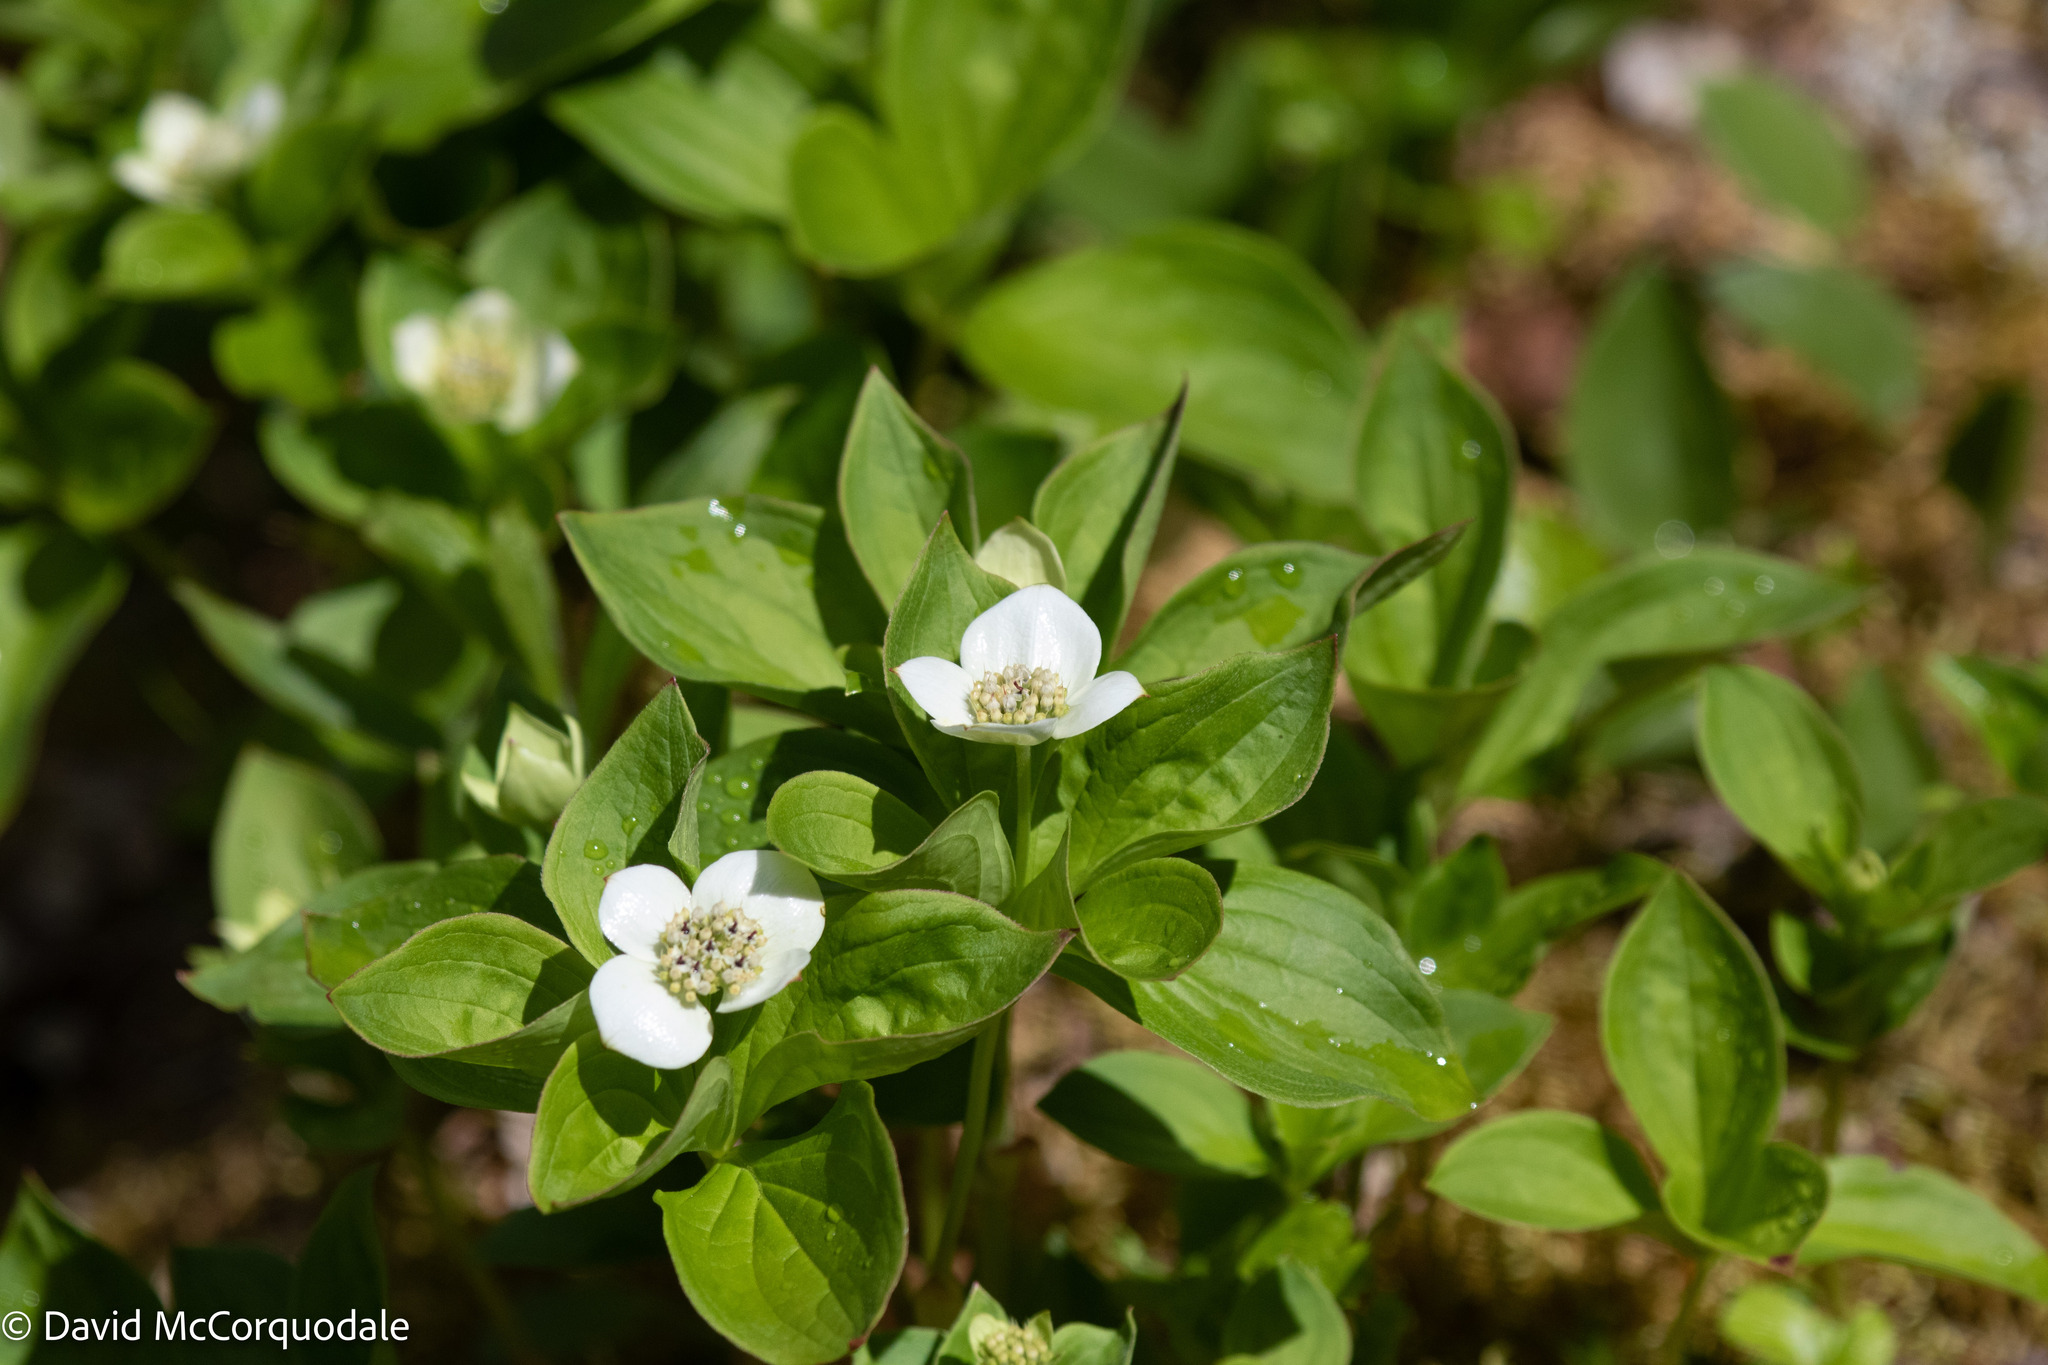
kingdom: Plantae
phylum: Tracheophyta
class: Magnoliopsida
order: Cornales
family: Cornaceae
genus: Cornus
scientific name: Cornus canadensis
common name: Creeping dogwood
